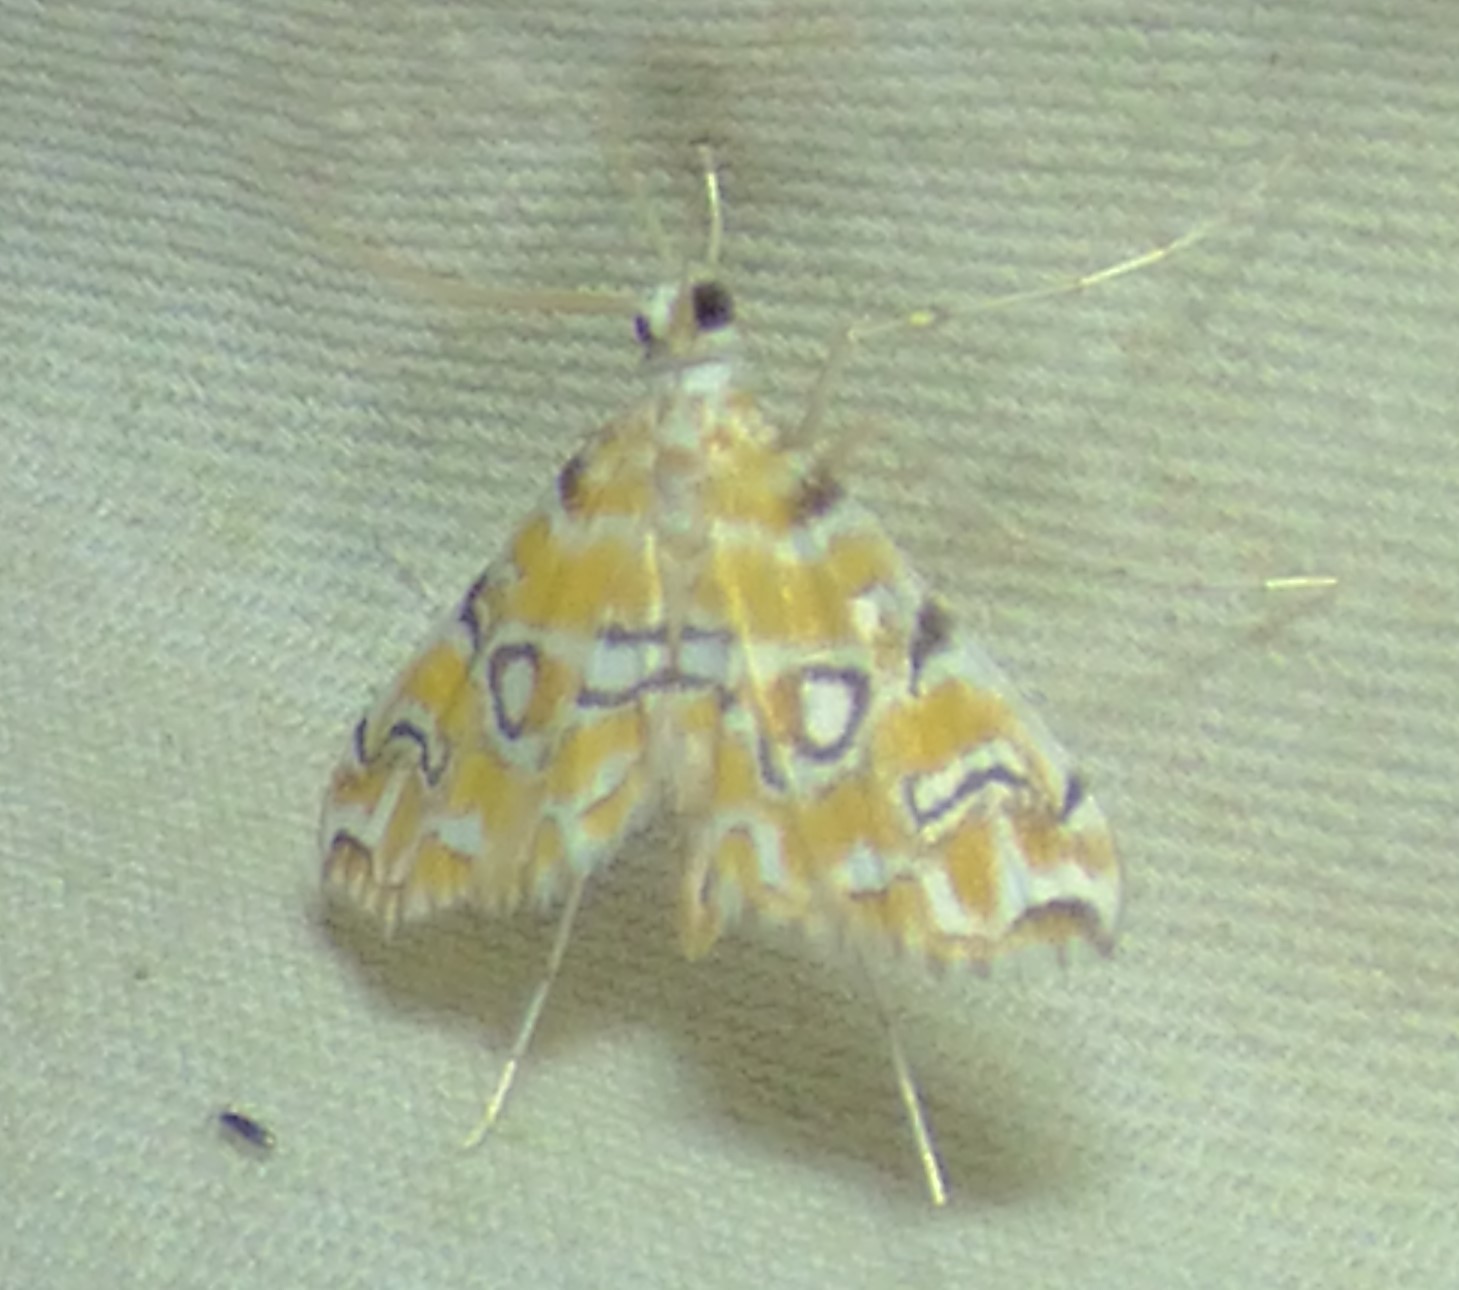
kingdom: Animalia
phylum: Arthropoda
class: Insecta
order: Lepidoptera
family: Crambidae
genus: Elophila
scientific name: Elophila icciusalis
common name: Pondside pyralid moth
